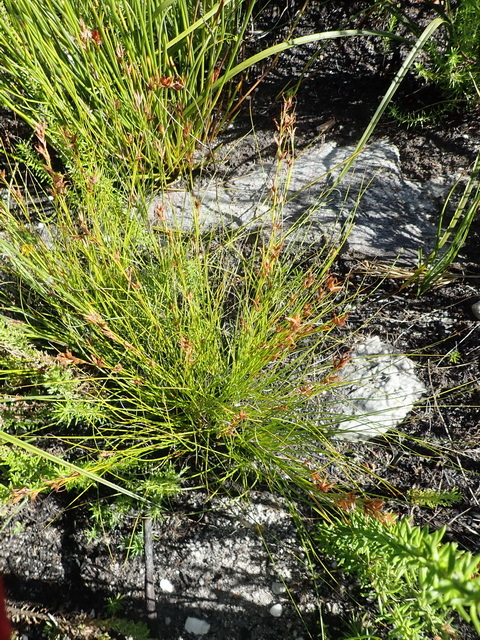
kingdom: Plantae
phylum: Tracheophyta
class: Liliopsida
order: Poales
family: Cyperaceae
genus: Tetraria
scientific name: Tetraria microstachys
